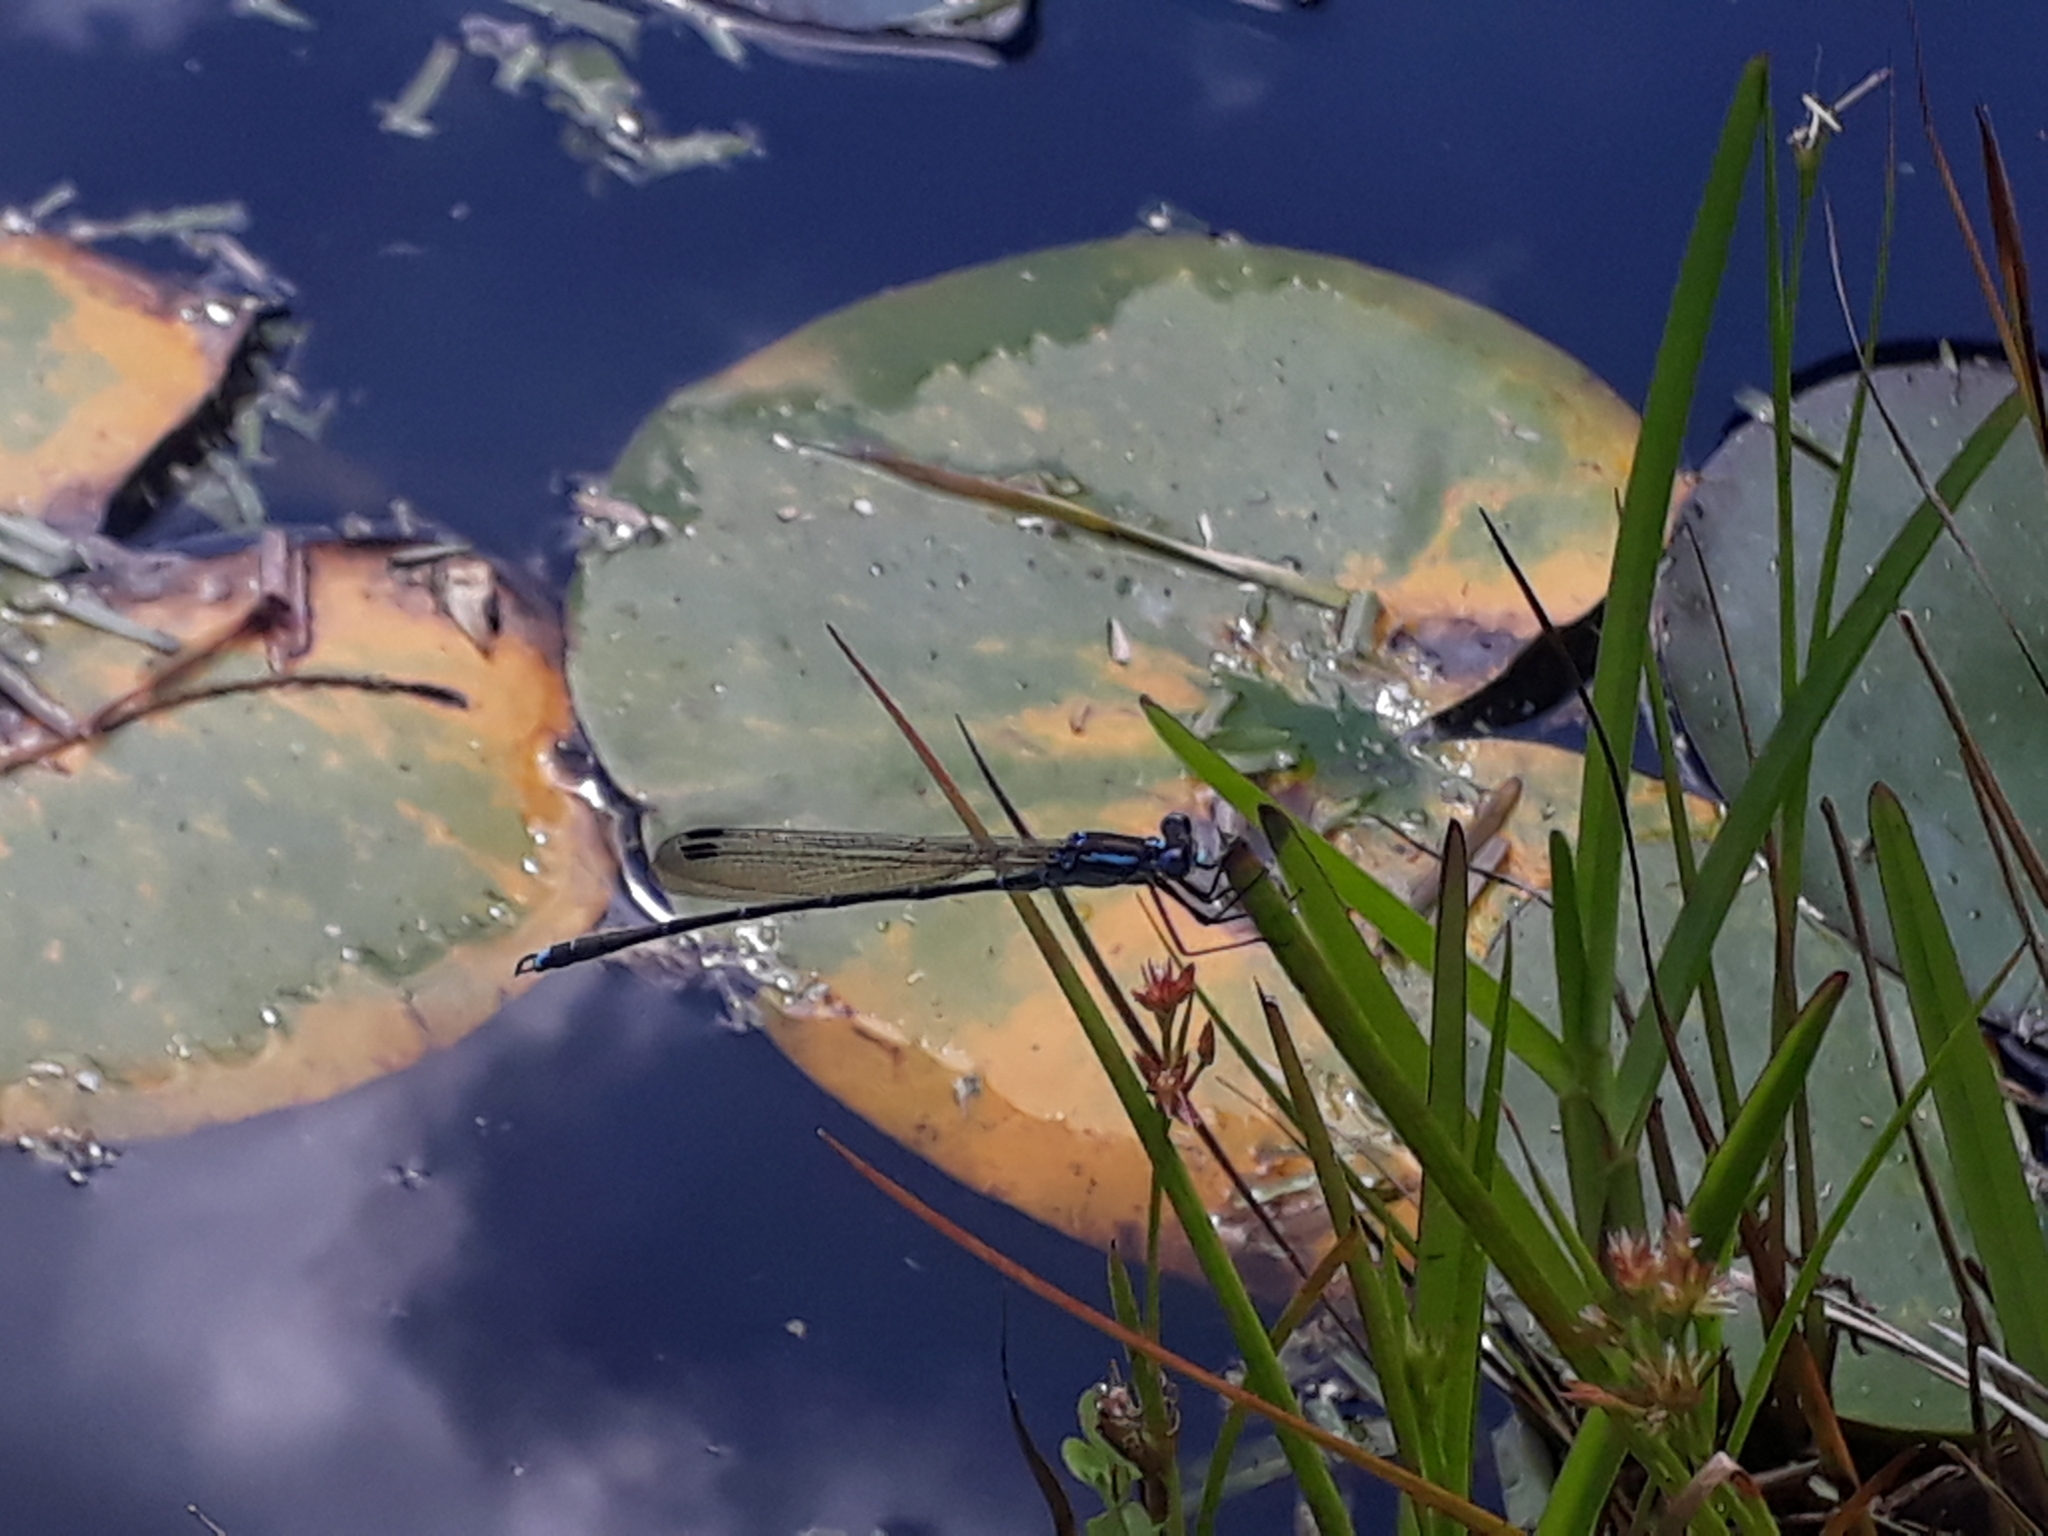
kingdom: Animalia
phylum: Arthropoda
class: Insecta
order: Odonata
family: Lestidae
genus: Austrolestes
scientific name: Austrolestes colensonis
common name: Blue damselfly
